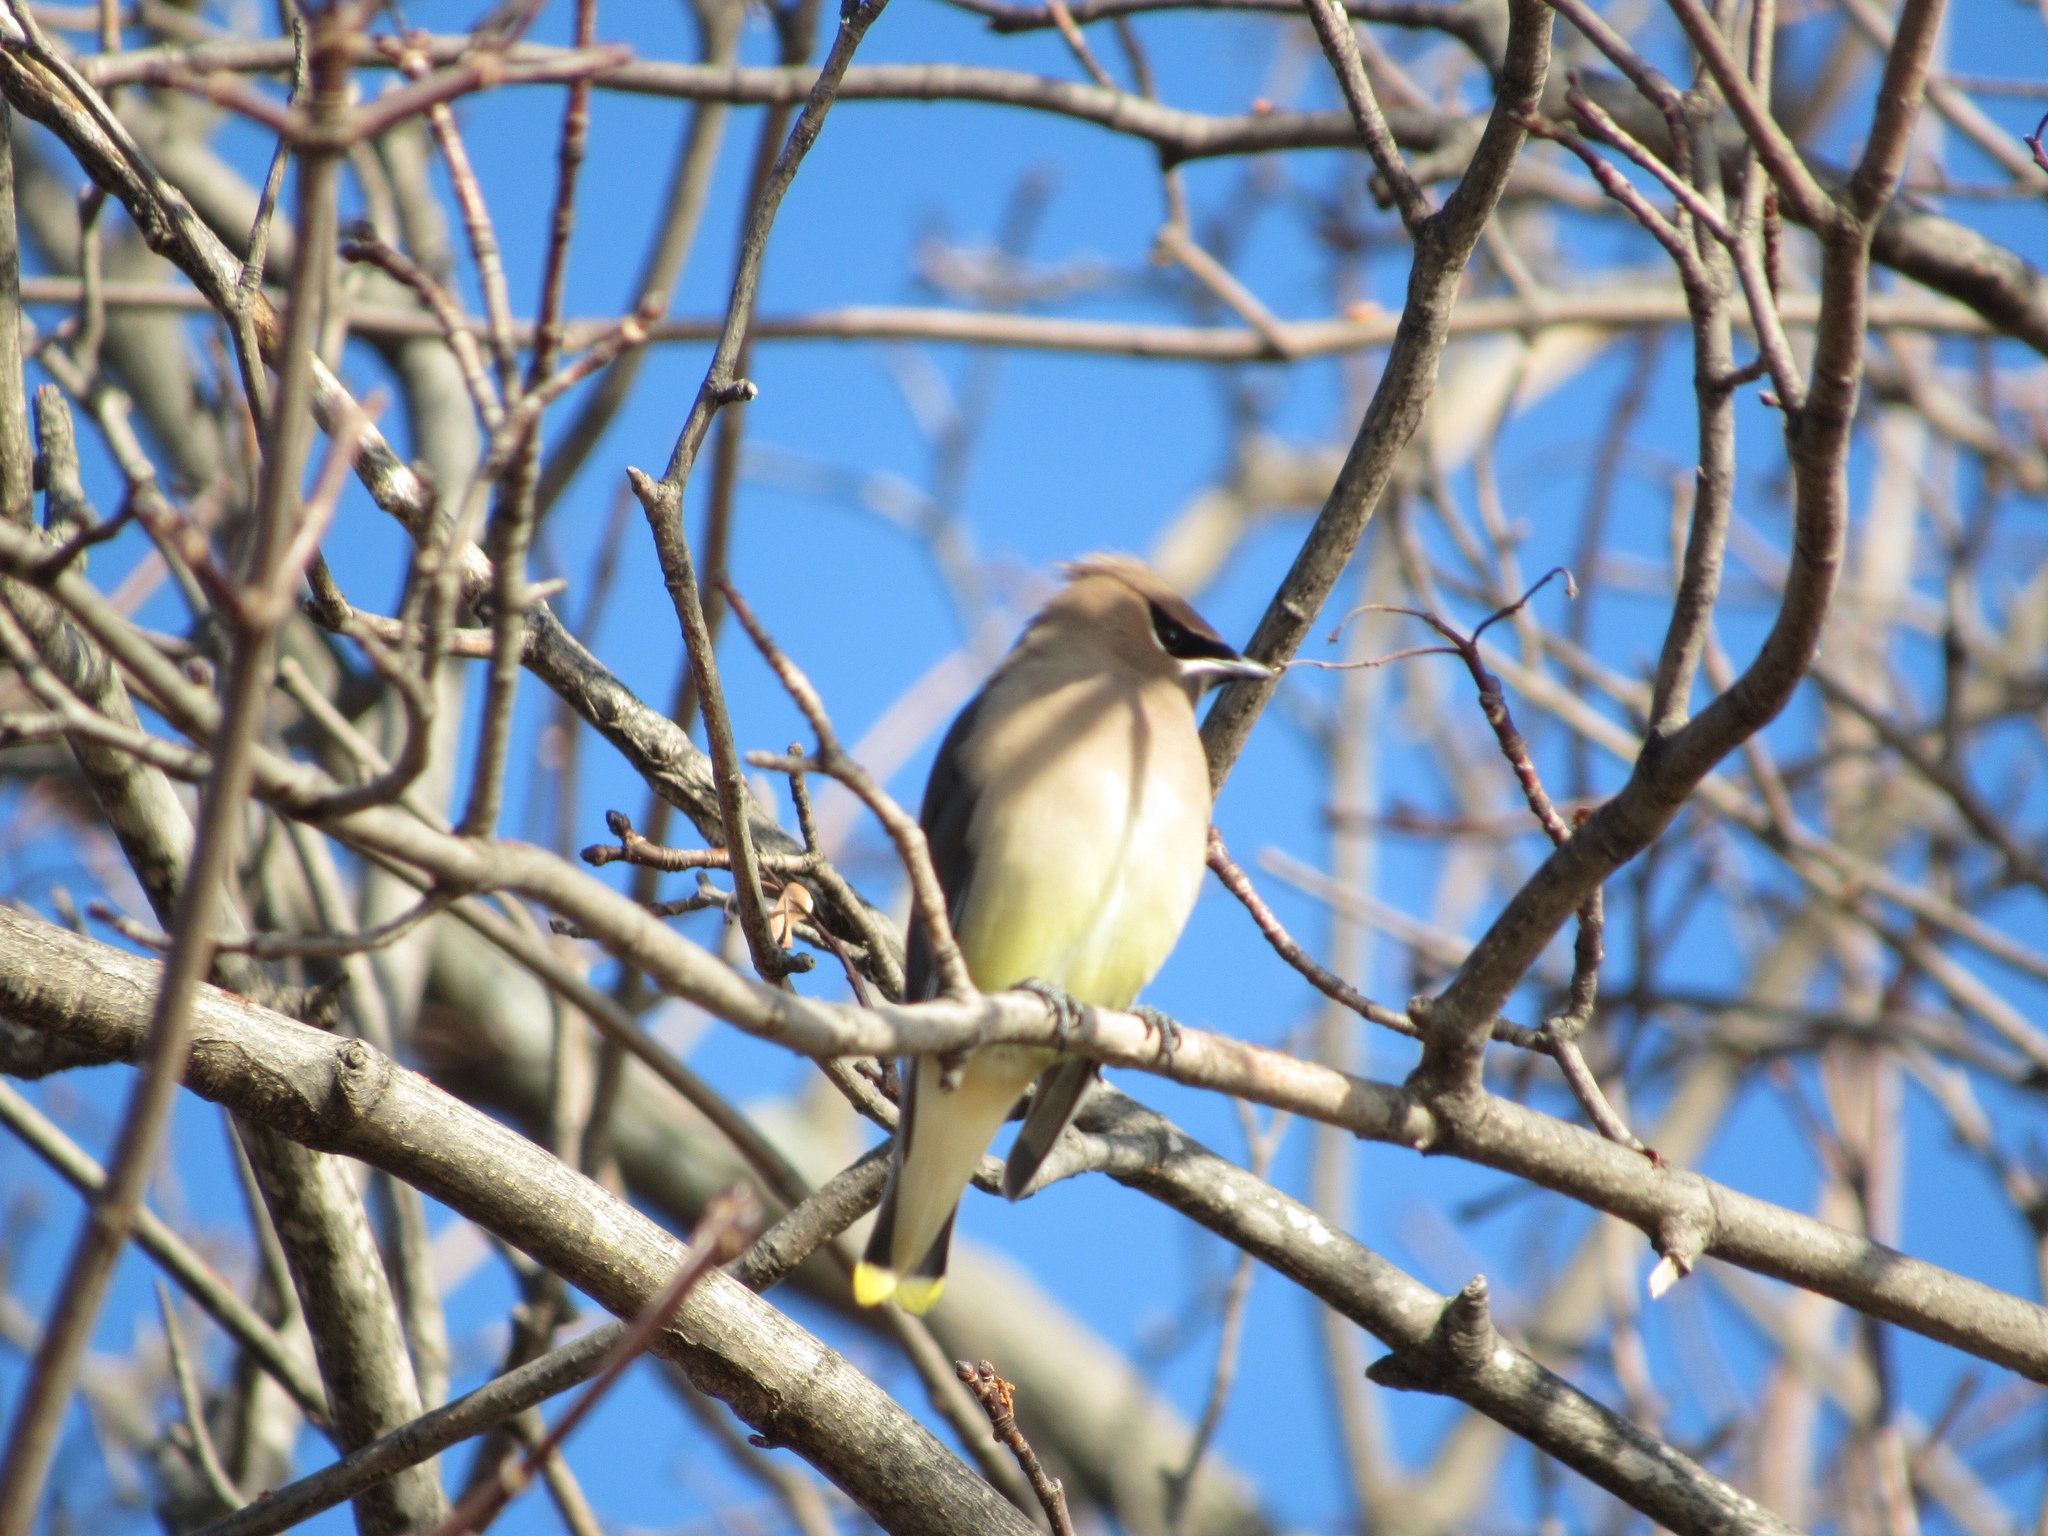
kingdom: Animalia
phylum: Chordata
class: Aves
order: Passeriformes
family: Bombycillidae
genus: Bombycilla
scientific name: Bombycilla cedrorum
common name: Cedar waxwing
